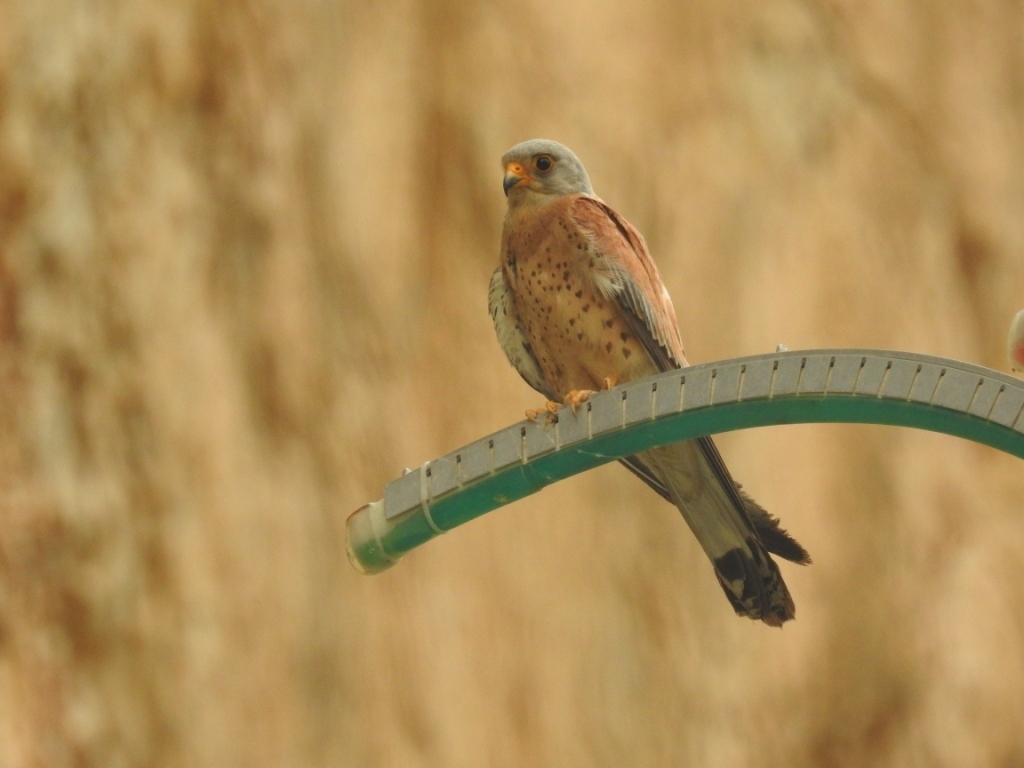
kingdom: Animalia
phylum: Chordata
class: Aves
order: Falconiformes
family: Falconidae
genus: Falco
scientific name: Falco naumanni
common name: Lesser kestrel
